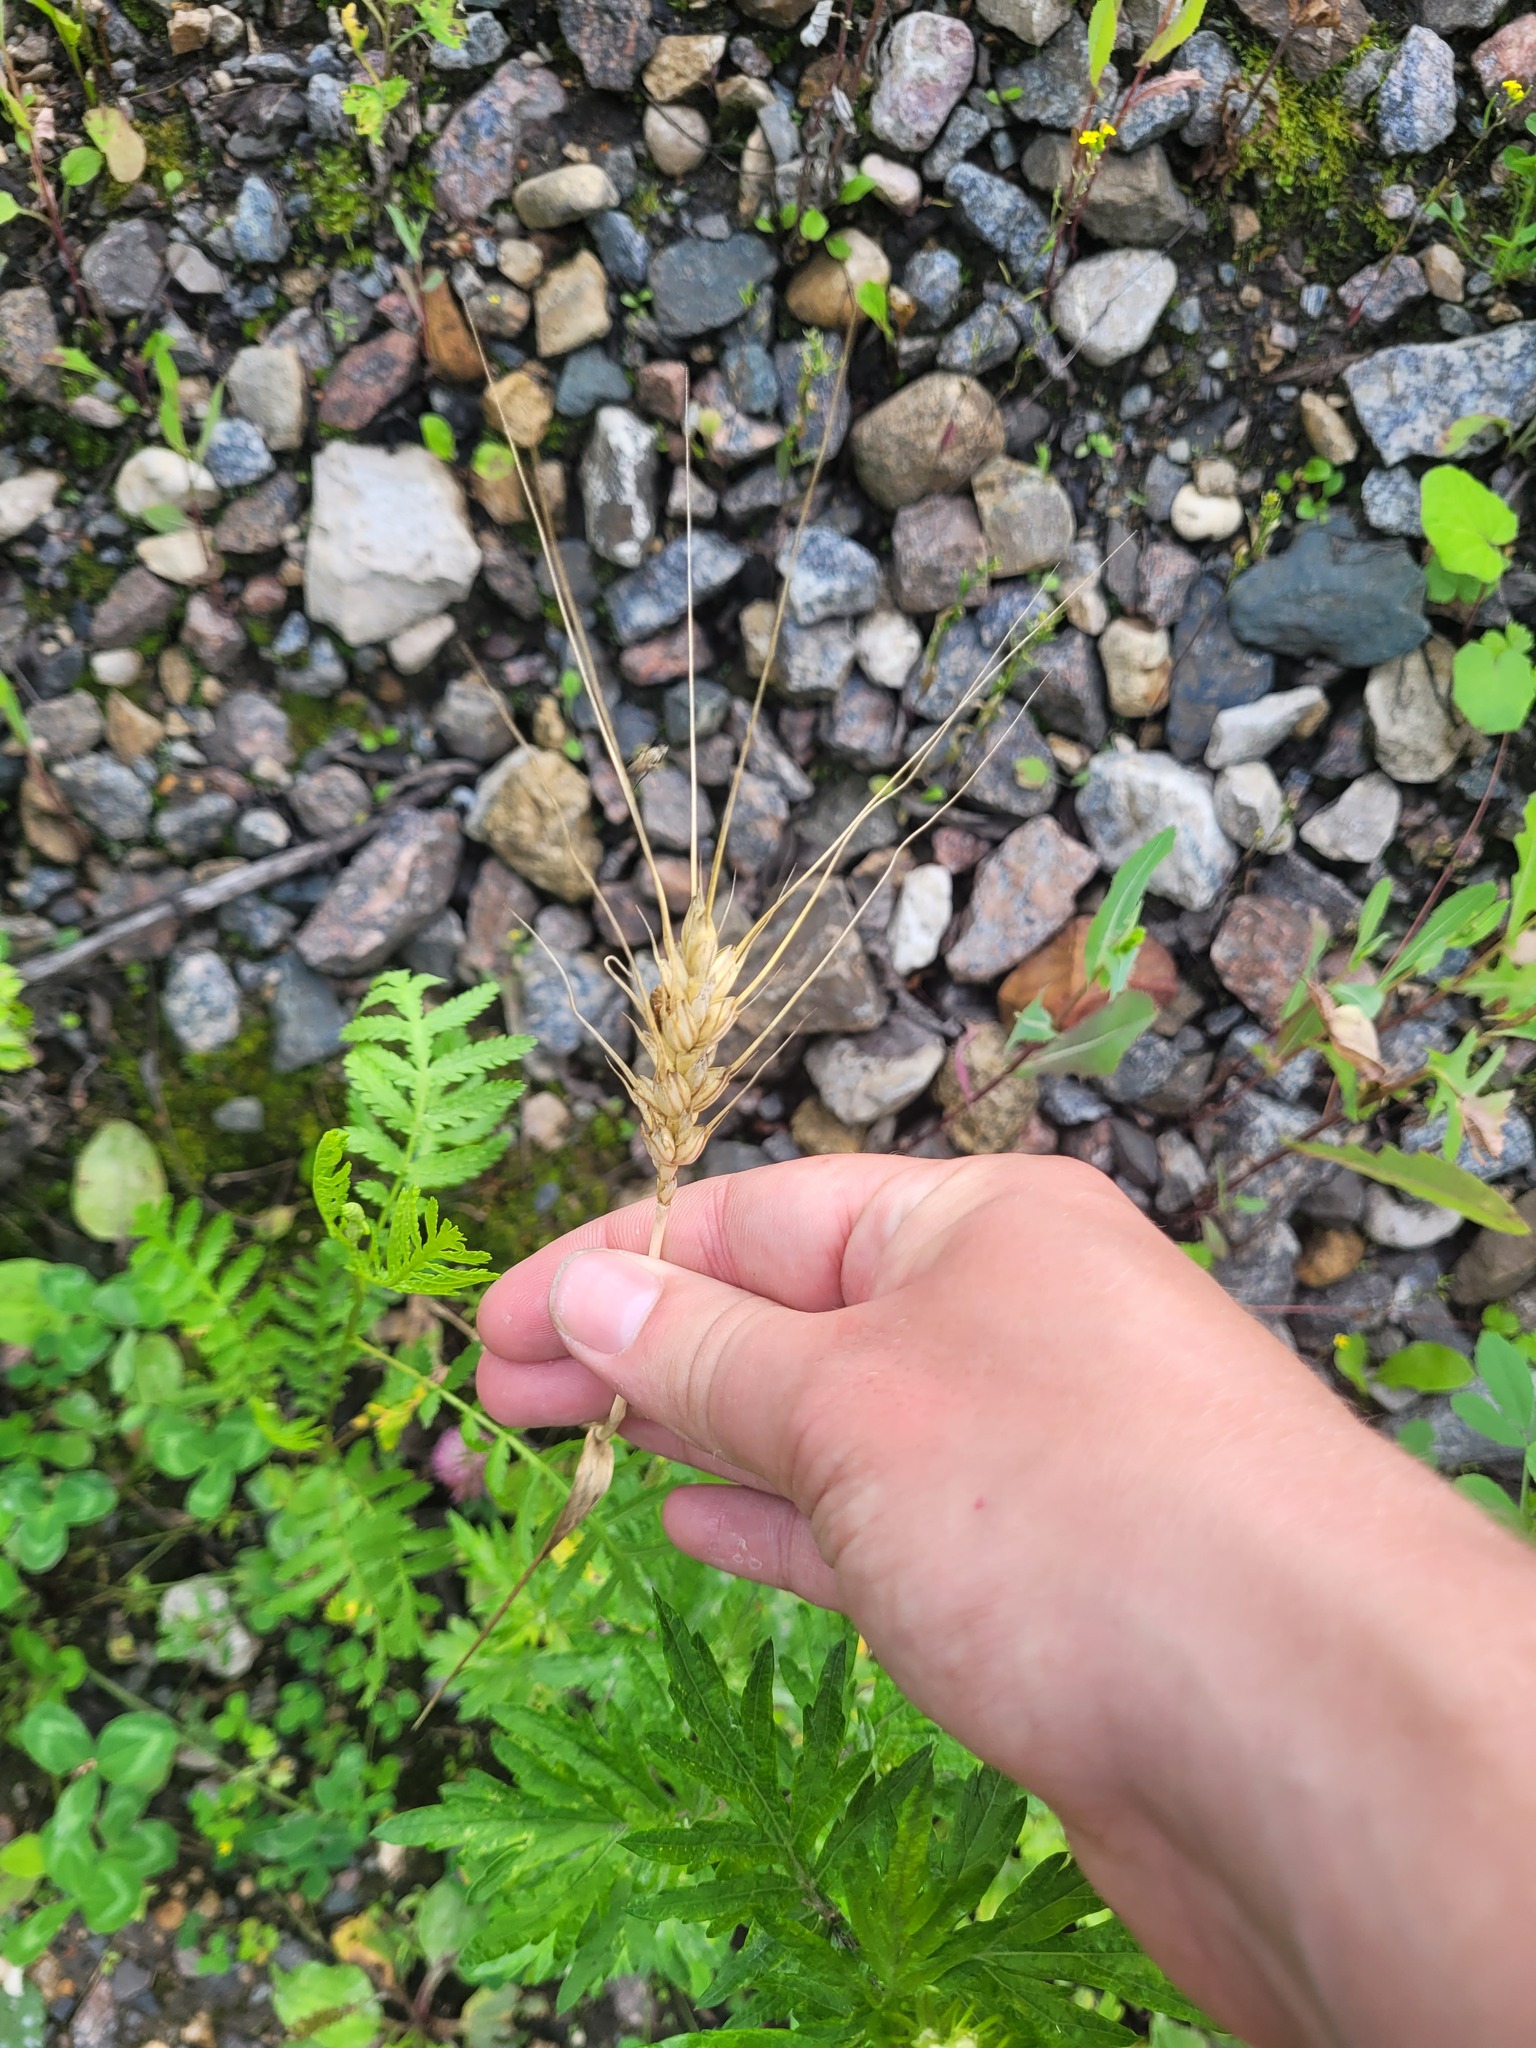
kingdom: Plantae
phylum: Tracheophyta
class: Liliopsida
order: Poales
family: Poaceae
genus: Triticum
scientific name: Triticum aestivum
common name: Common wheat
